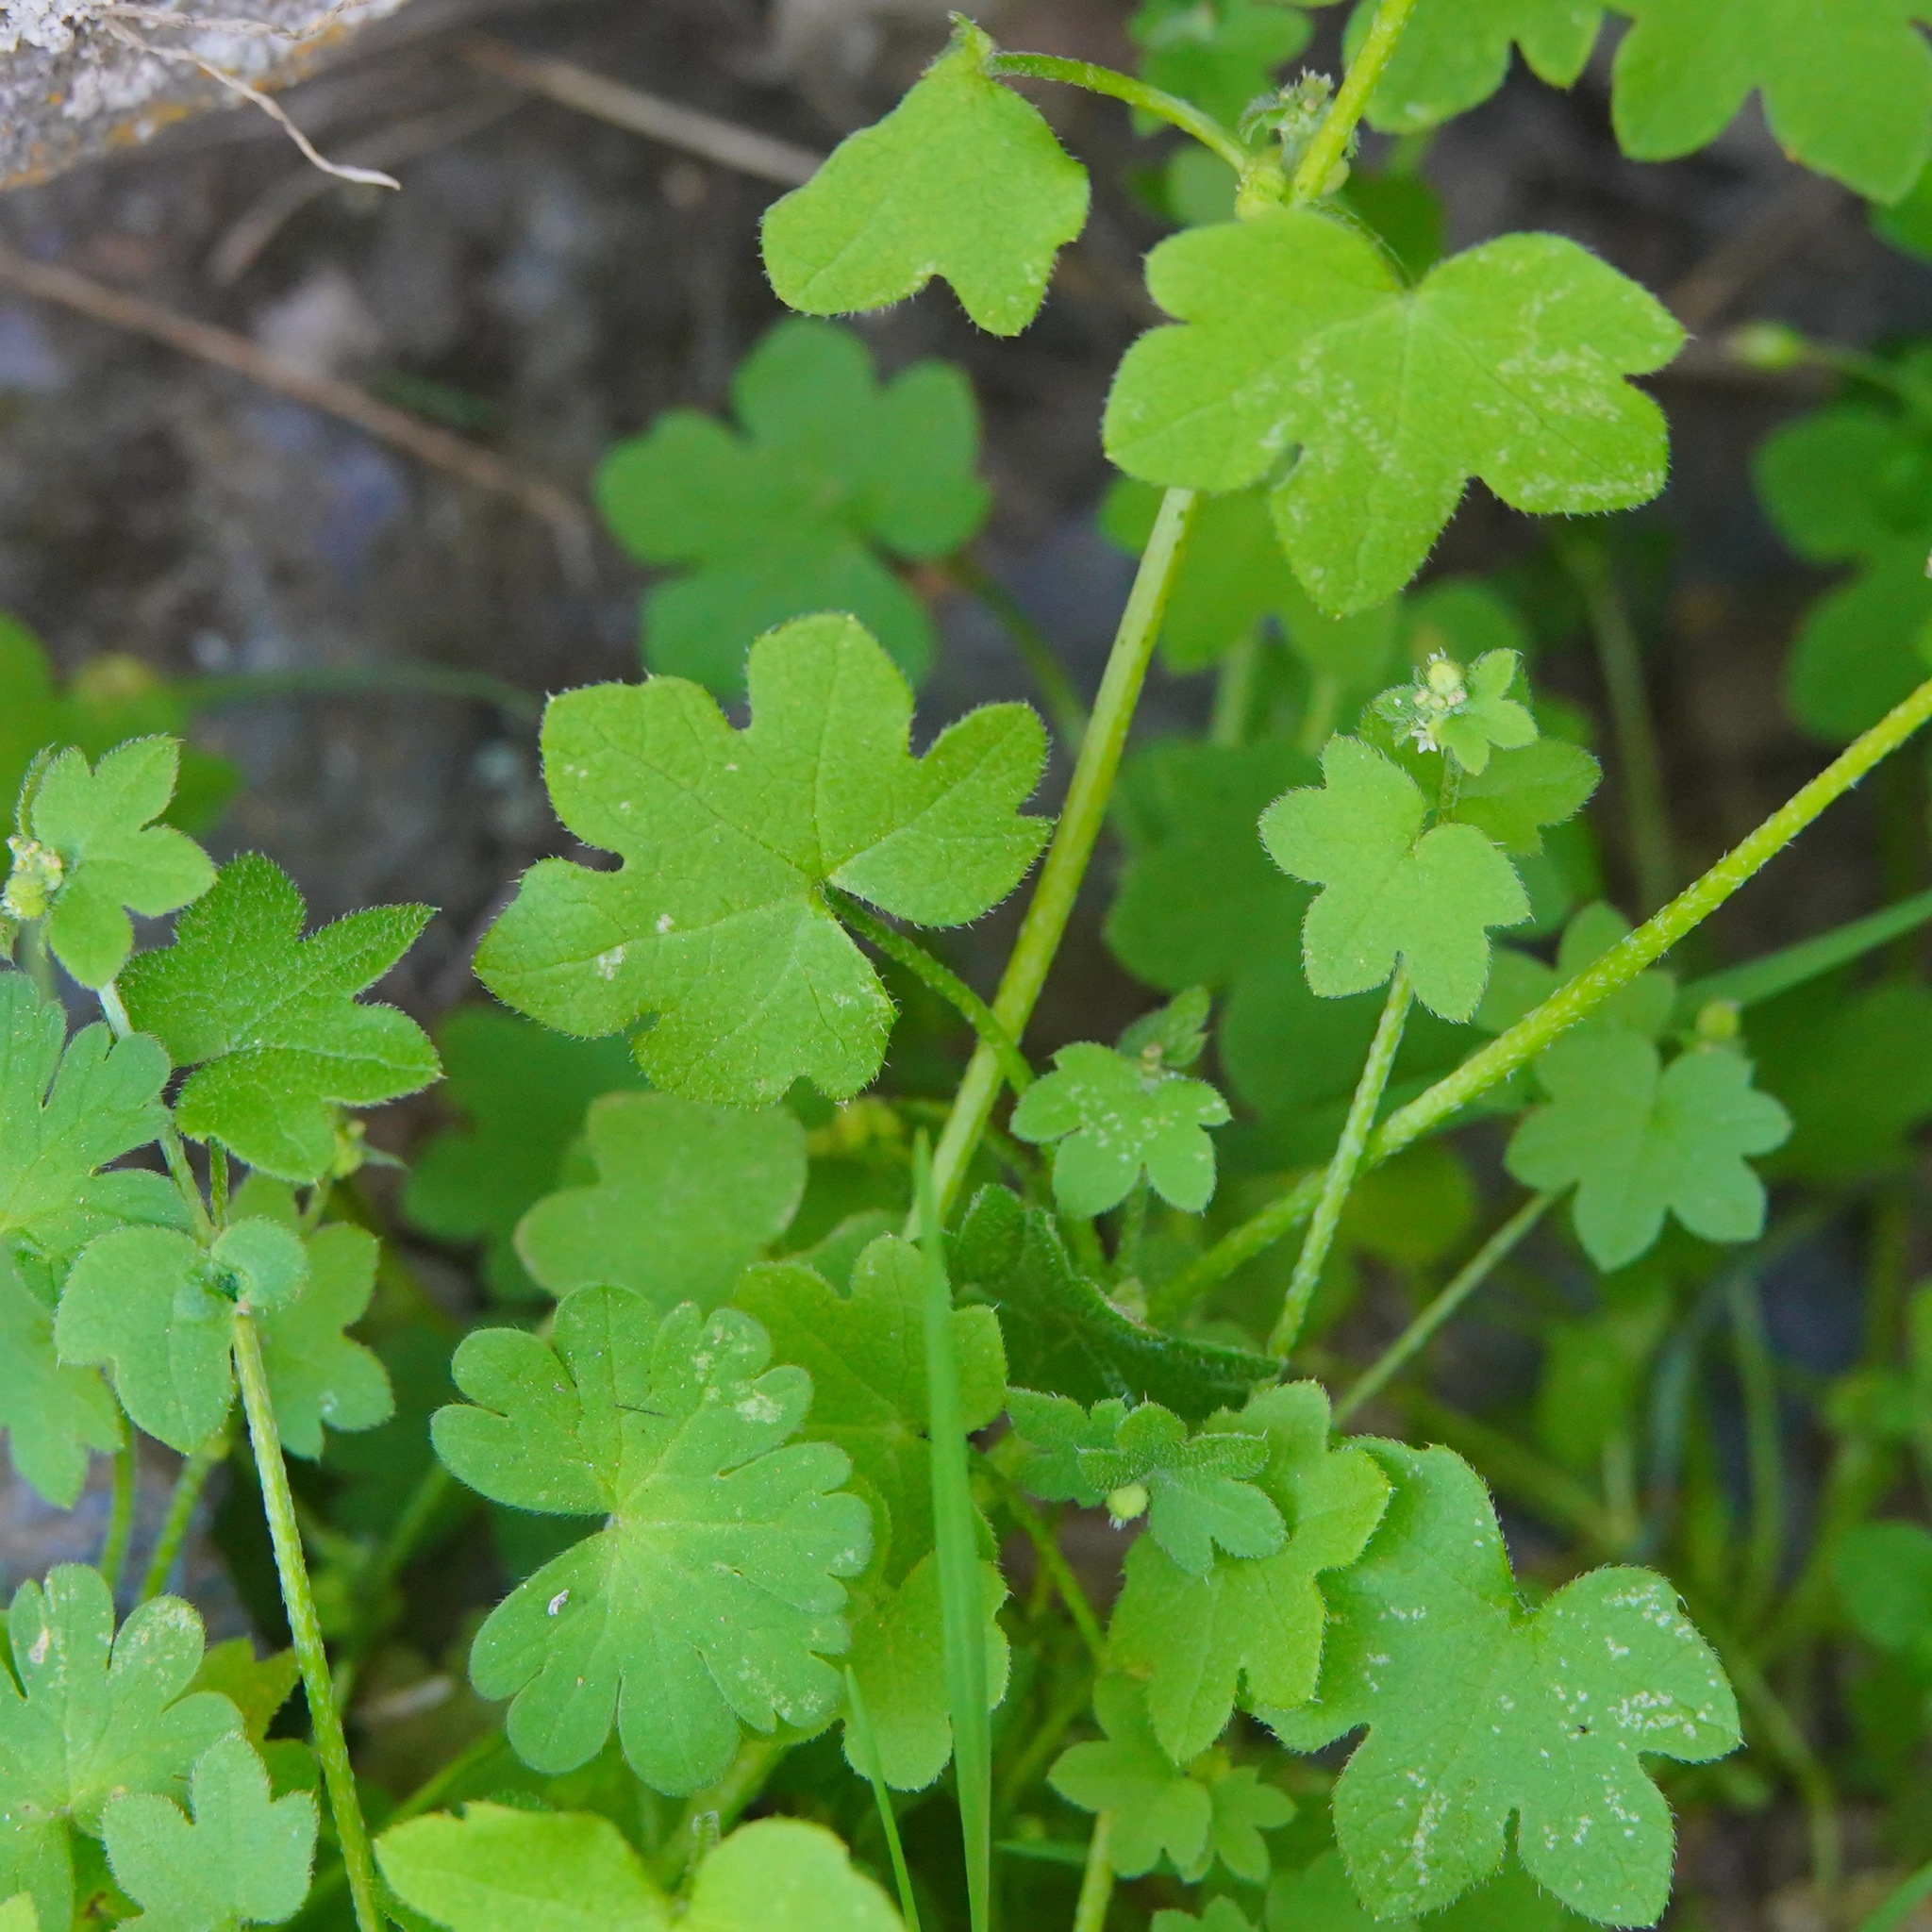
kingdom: Plantae
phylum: Tracheophyta
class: Magnoliopsida
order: Apiales
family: Apiaceae
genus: Bowlesia
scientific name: Bowlesia incana
